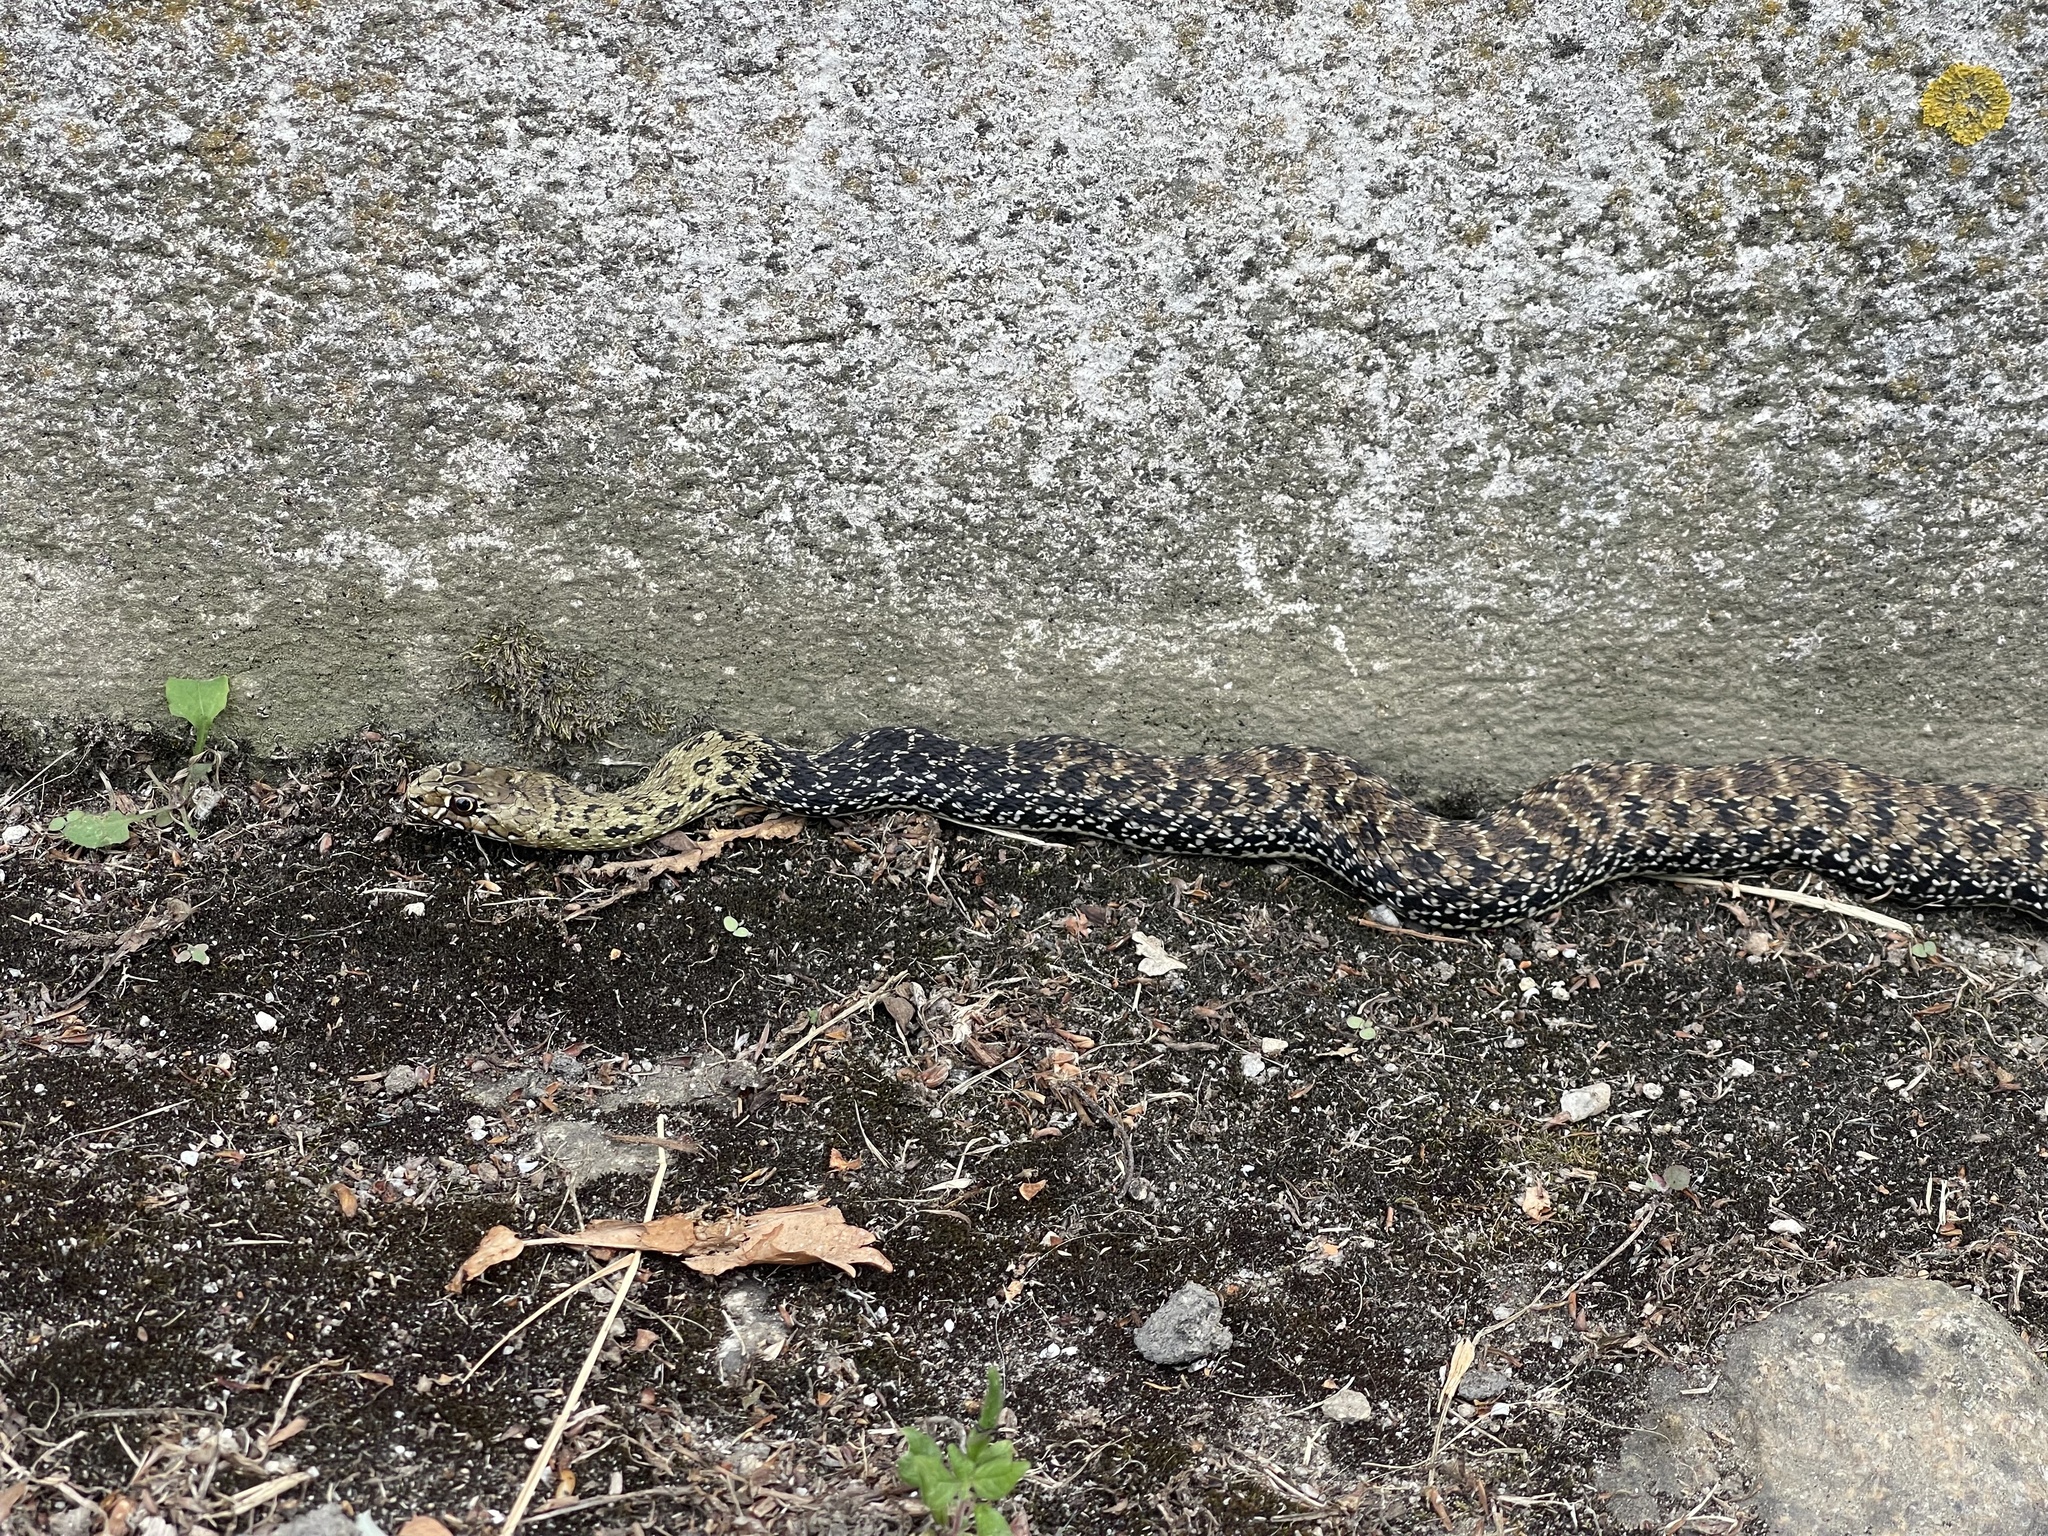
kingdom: Animalia
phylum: Chordata
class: Squamata
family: Psammophiidae
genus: Malpolon
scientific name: Malpolon monspessulanus
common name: Montpellier snake
